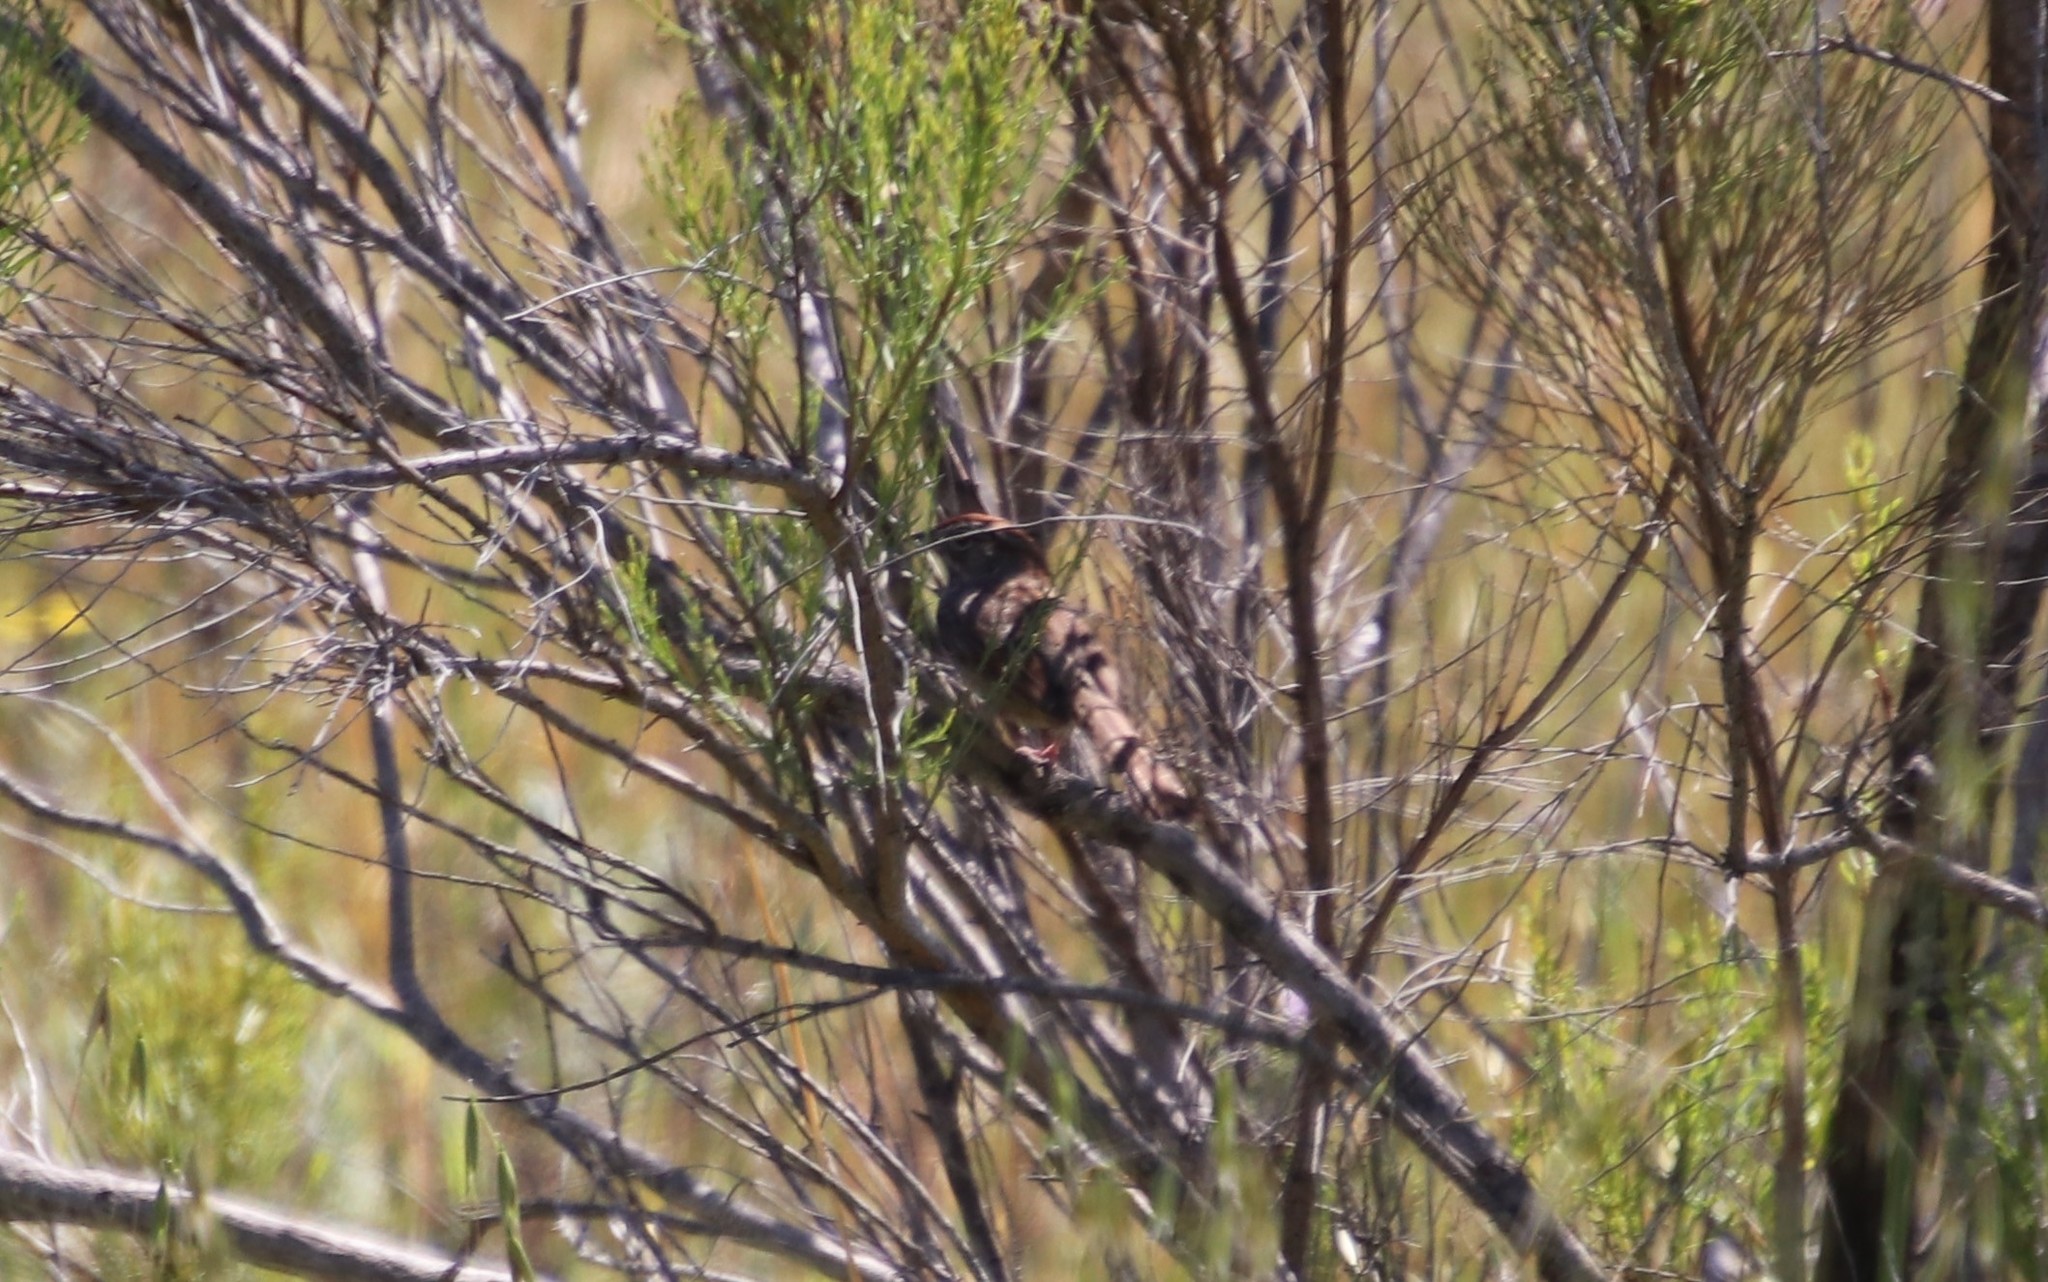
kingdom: Animalia
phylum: Chordata
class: Aves
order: Passeriformes
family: Passerellidae
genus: Aimophila
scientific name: Aimophila ruficeps
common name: Rufous-crowned sparrow
